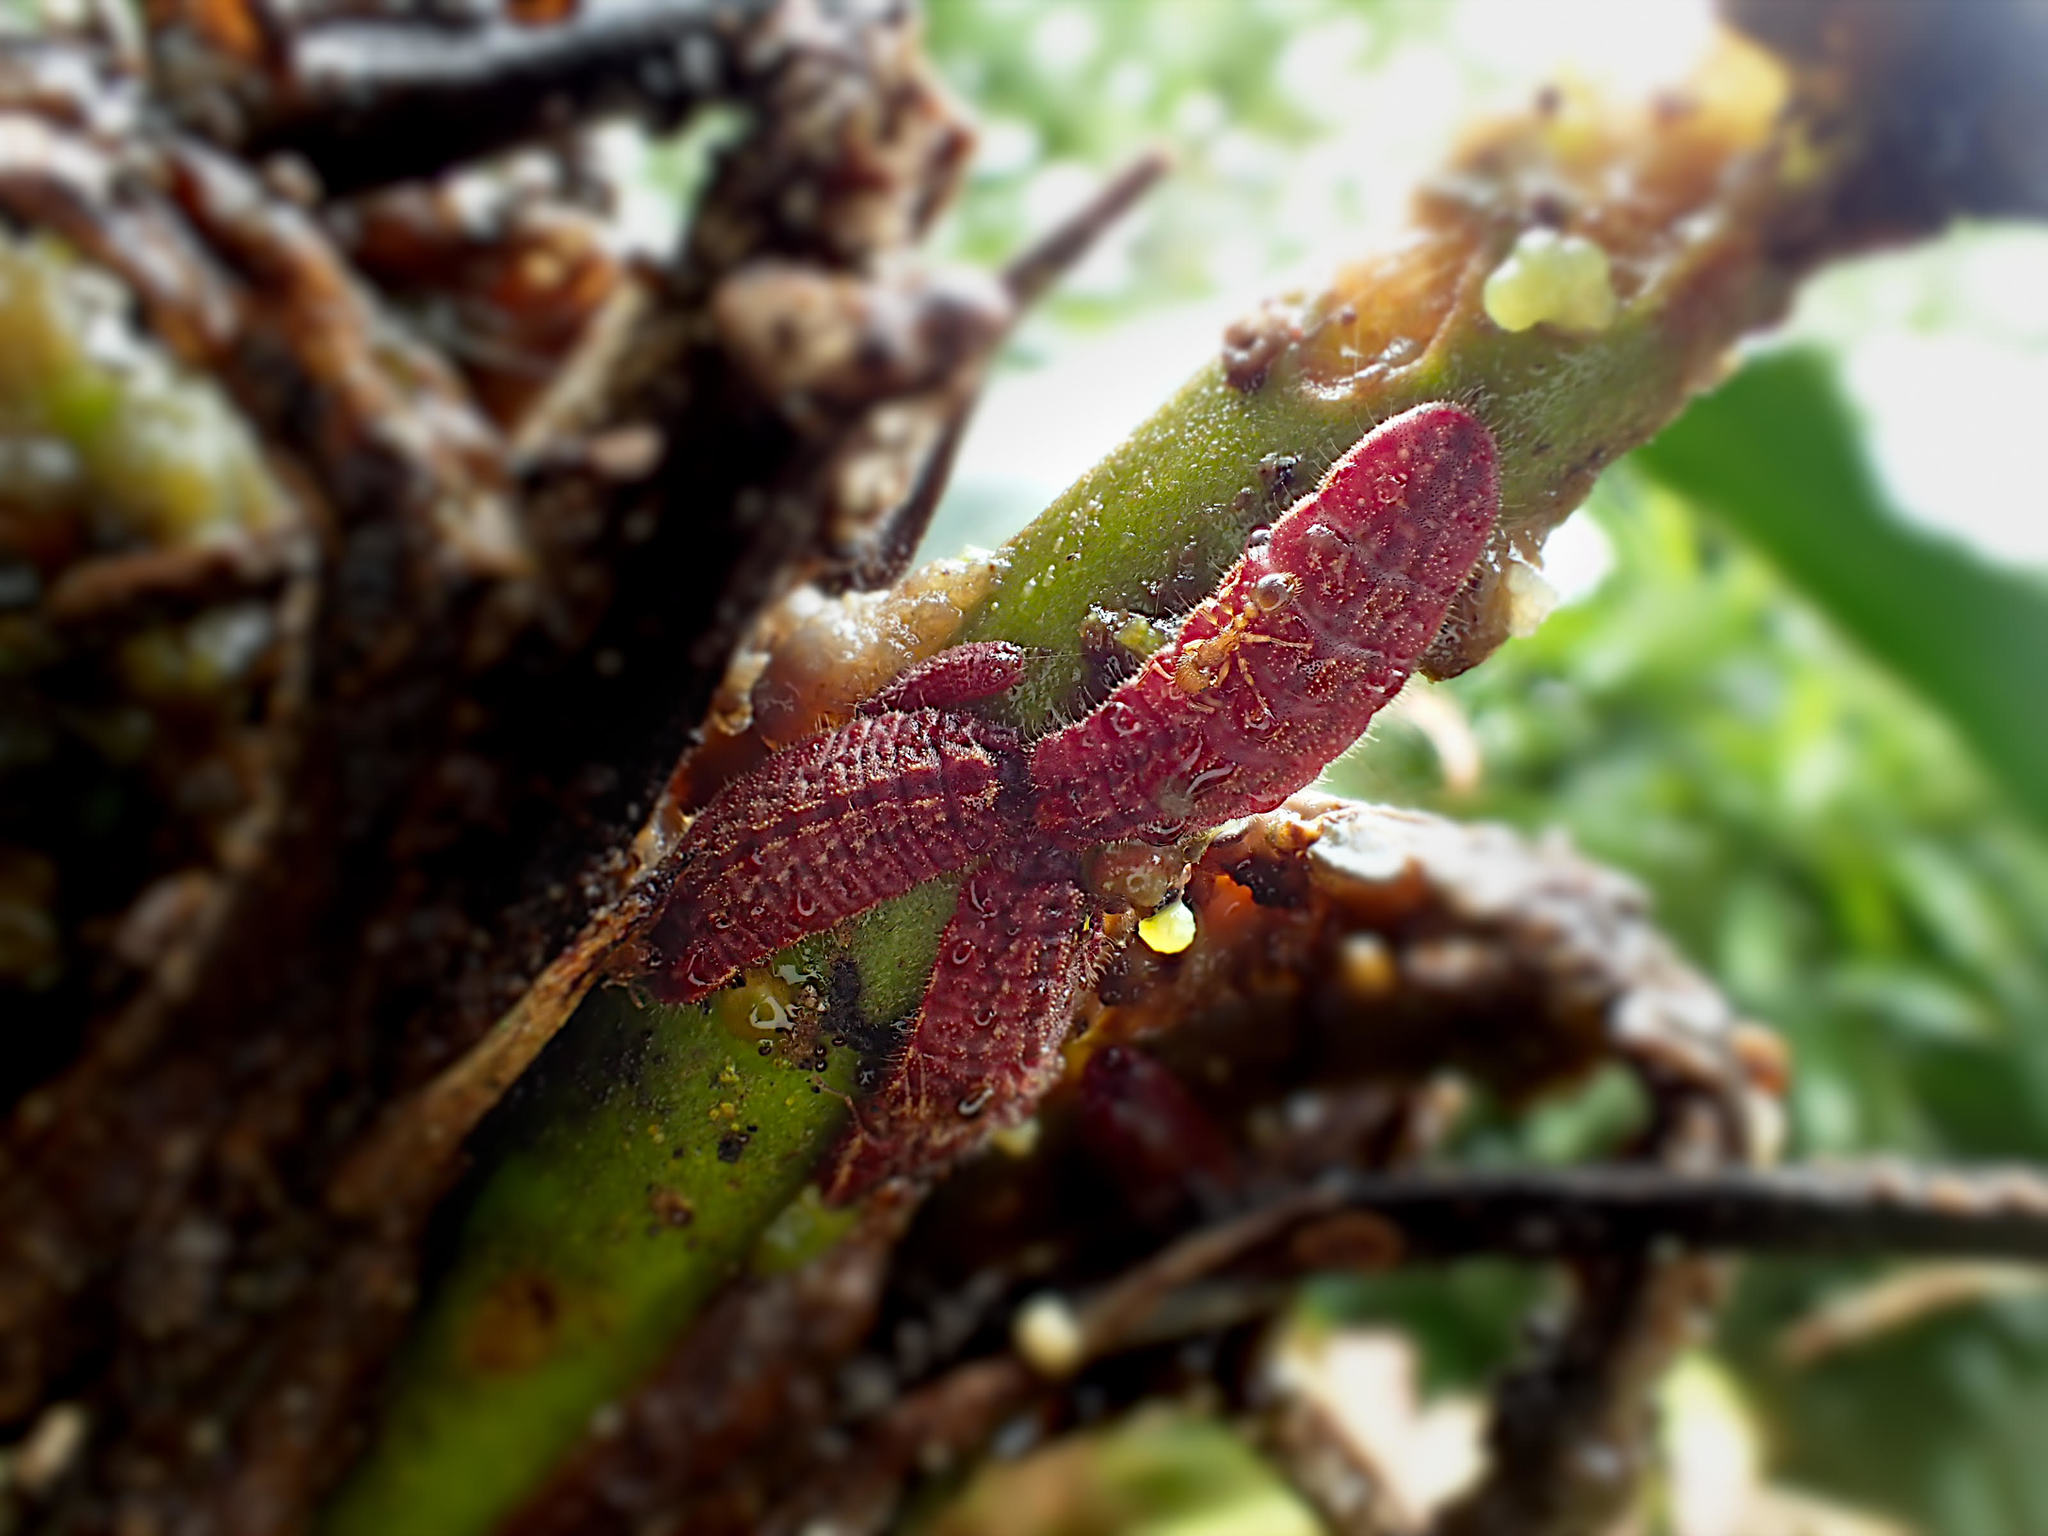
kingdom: Animalia
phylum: Arthropoda
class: Insecta
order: Lepidoptera
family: Lycaenidae
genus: Luthrodes
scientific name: Luthrodes pandava
